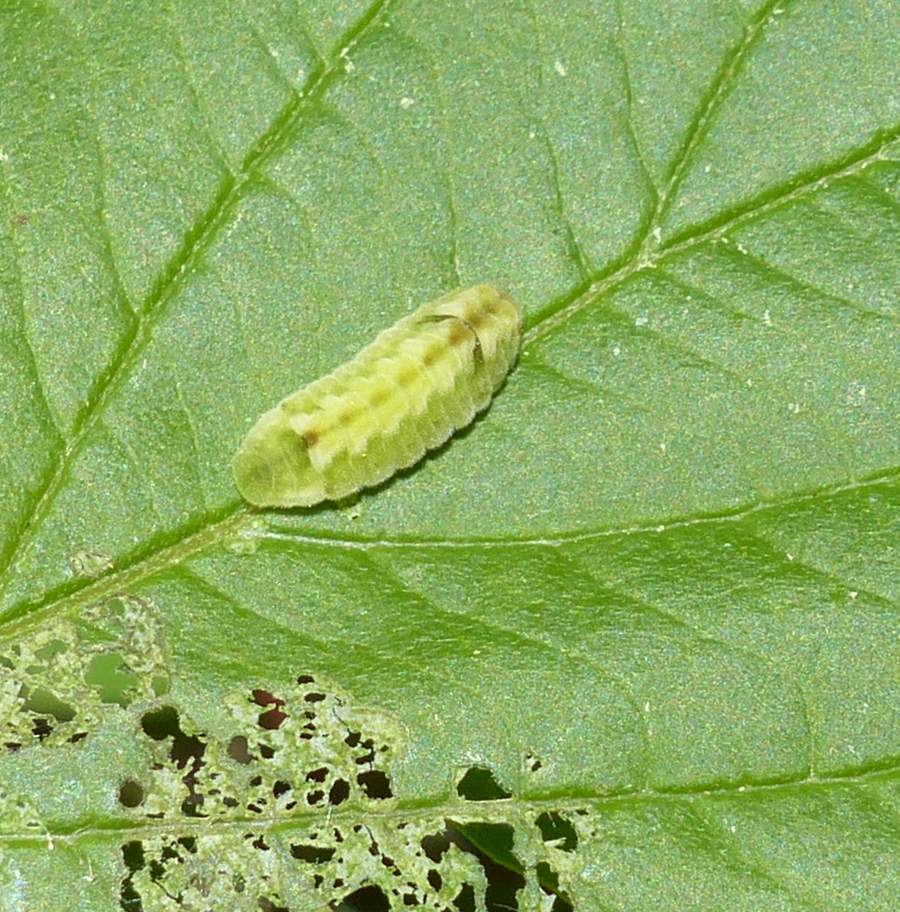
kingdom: Animalia
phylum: Arthropoda
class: Insecta
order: Lepidoptera
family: Lycaenidae
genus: Celastrina
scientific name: Celastrina lucia
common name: Lucia azure
